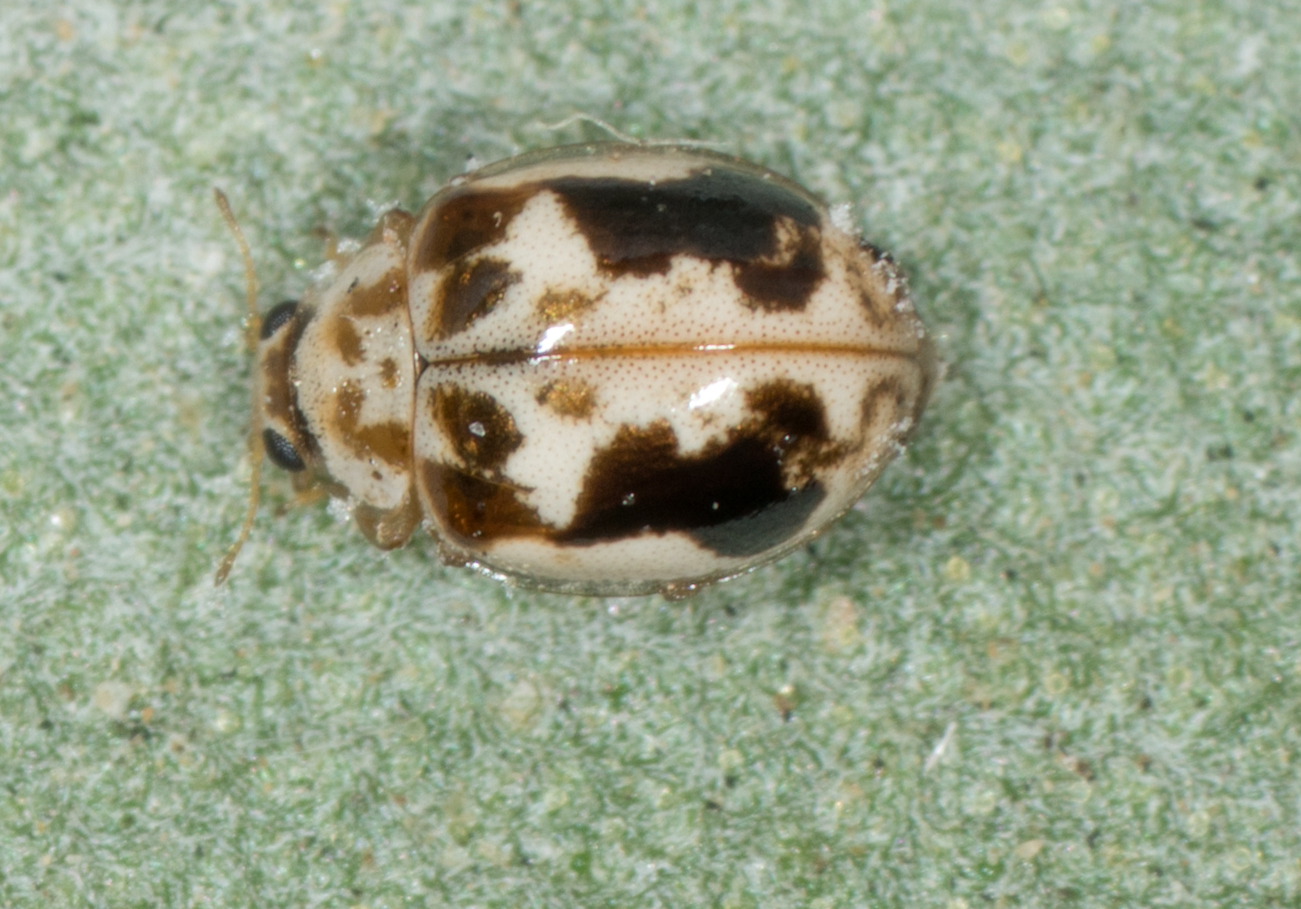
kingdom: Animalia
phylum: Arthropoda
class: Insecta
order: Coleoptera
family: Coccinellidae
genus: Psyllobora
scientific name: Psyllobora renifer
